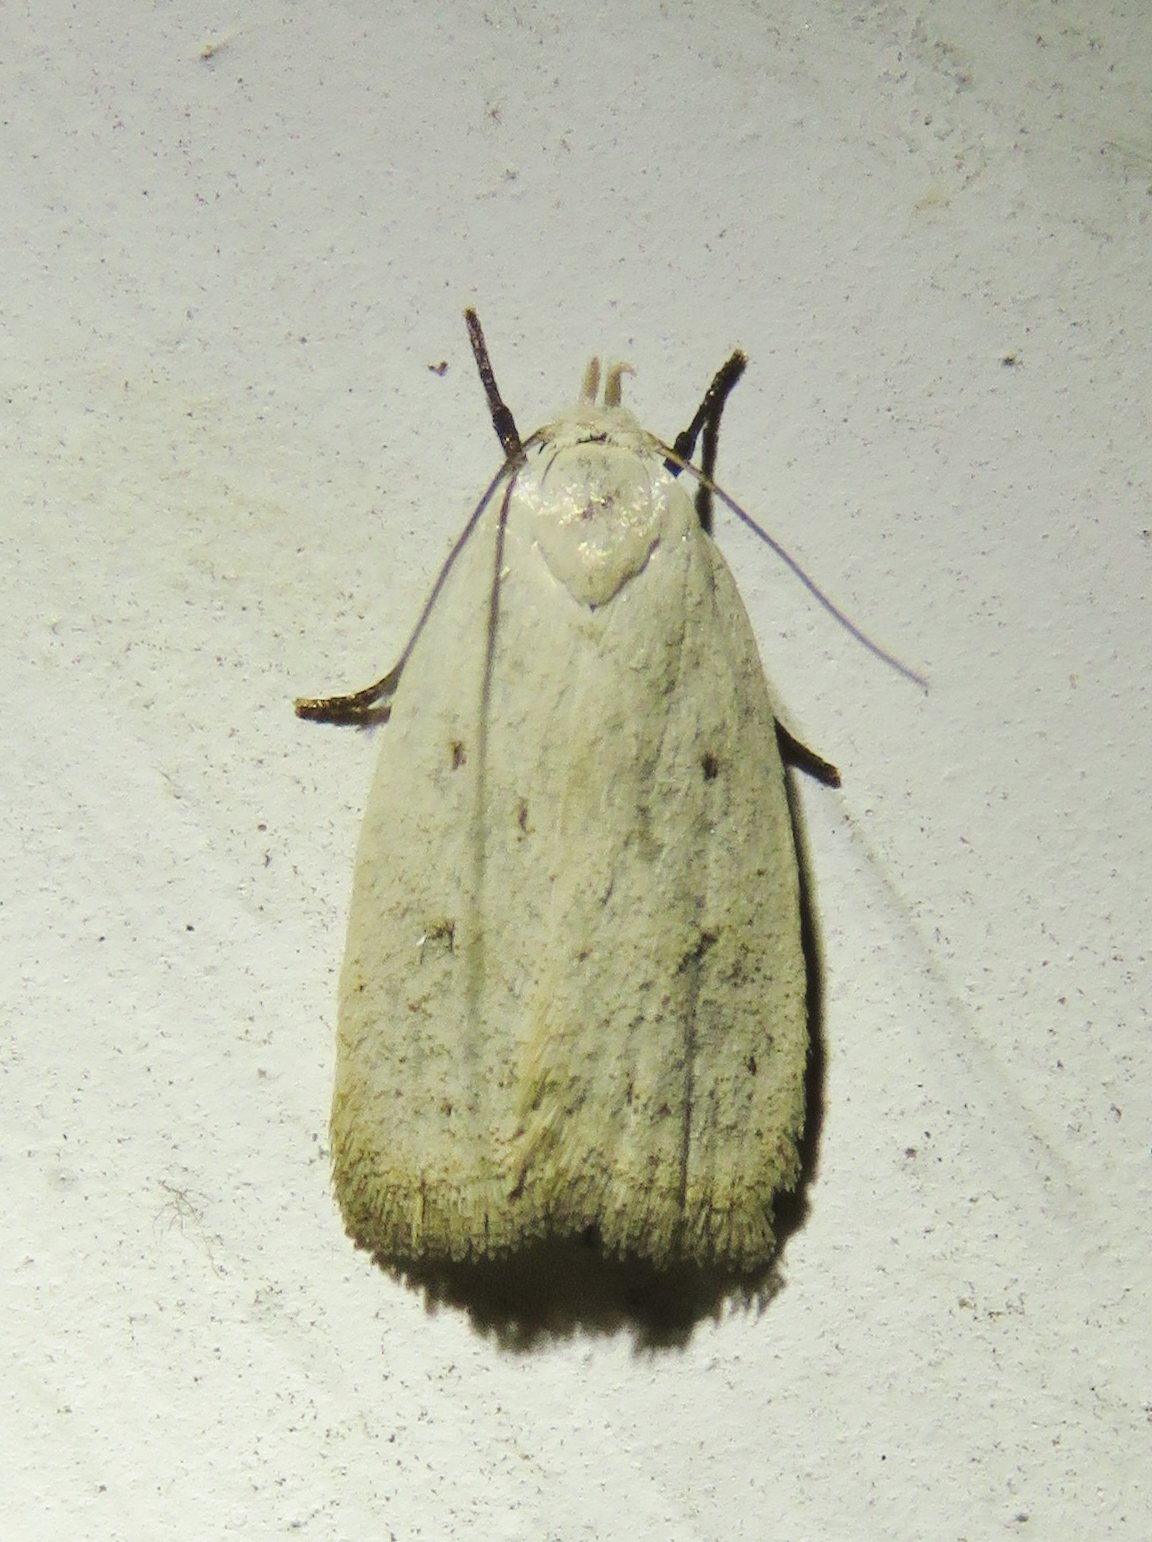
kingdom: Animalia
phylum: Arthropoda
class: Insecta
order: Lepidoptera
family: Oecophoridae
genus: Inga
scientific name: Inga cretacea
